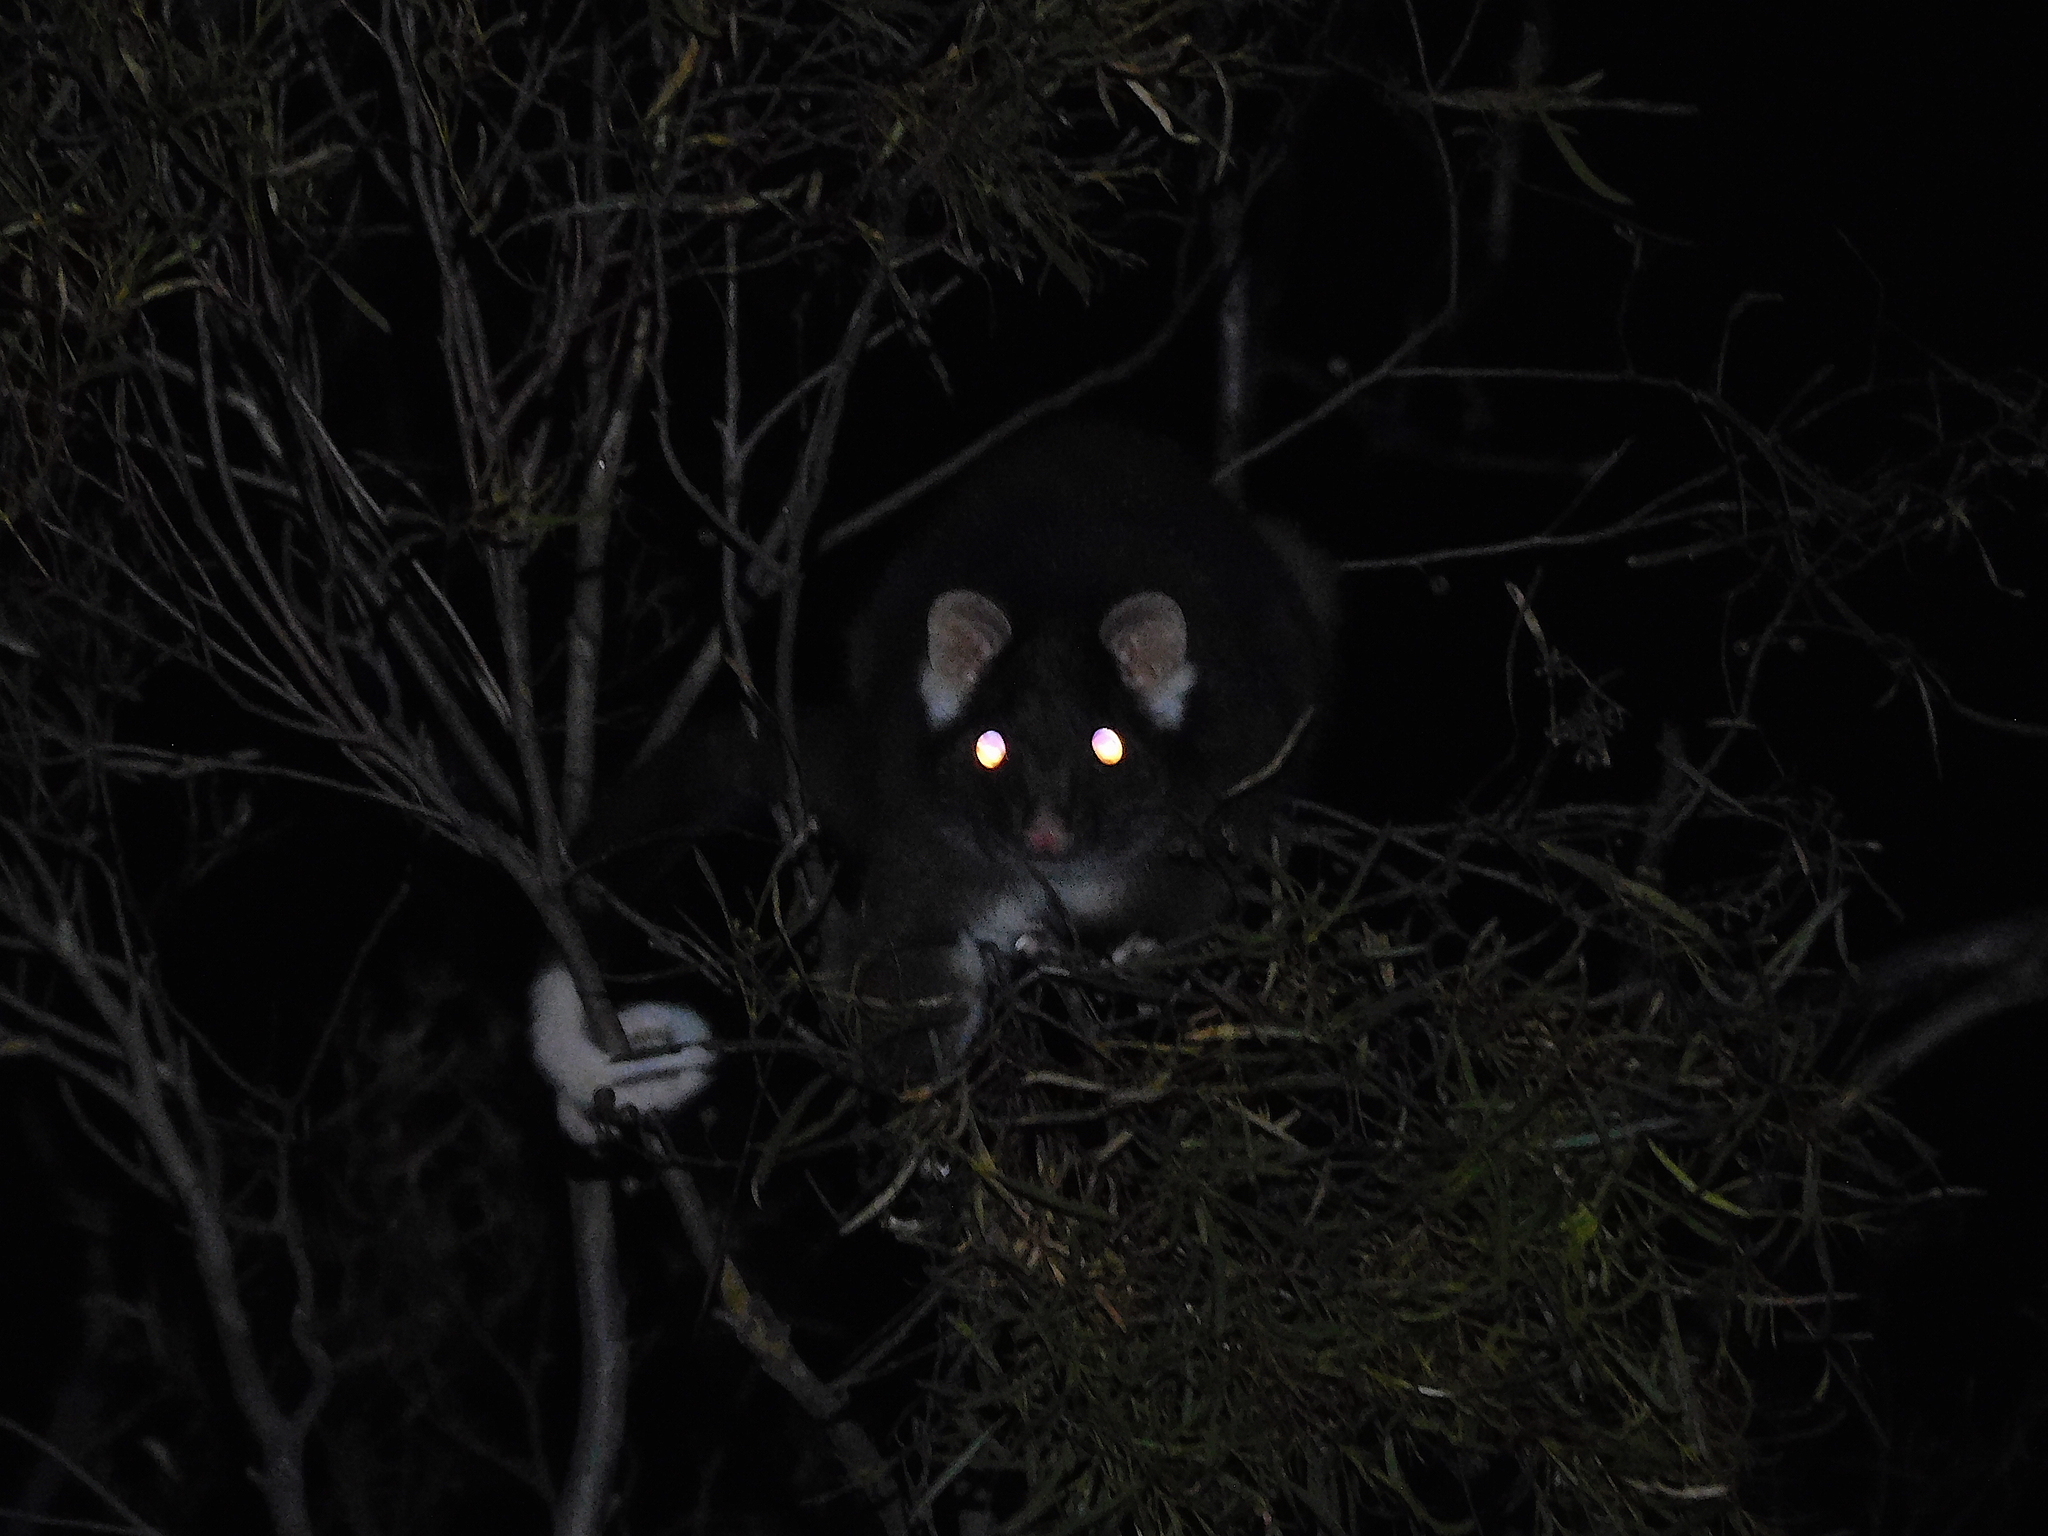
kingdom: Animalia
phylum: Chordata
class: Mammalia
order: Diprotodontia
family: Pseudocheiridae
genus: Pseudocheirus
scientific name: Pseudocheirus peregrinus
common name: Common ringtail possum
